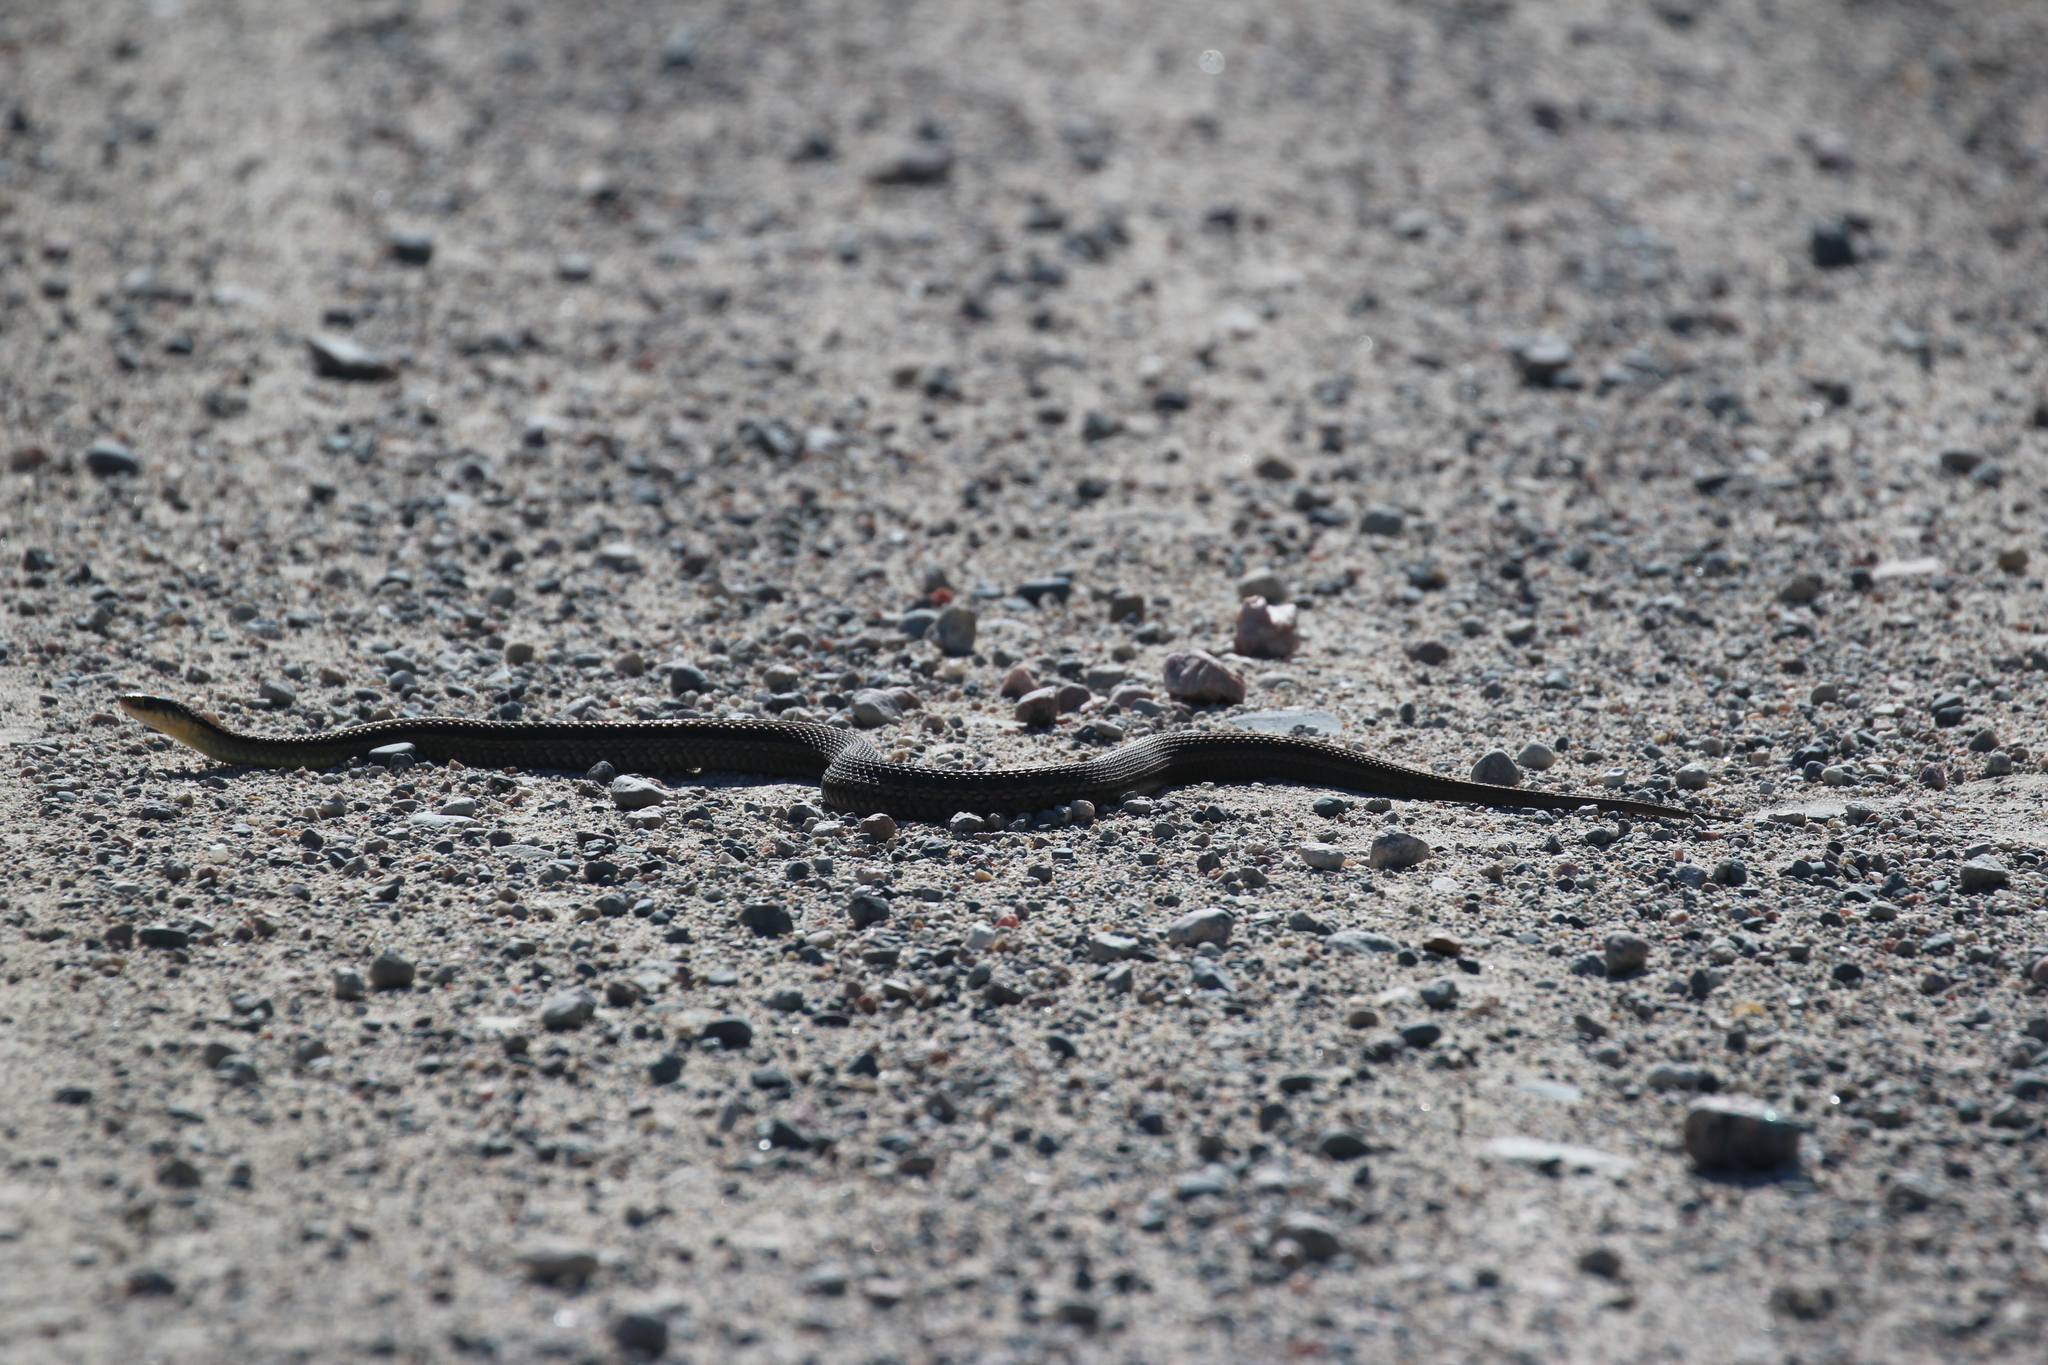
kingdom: Animalia
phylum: Chordata
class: Squamata
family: Colubridae
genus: Thamnophis
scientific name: Thamnophis sirtalis
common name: Common garter snake
